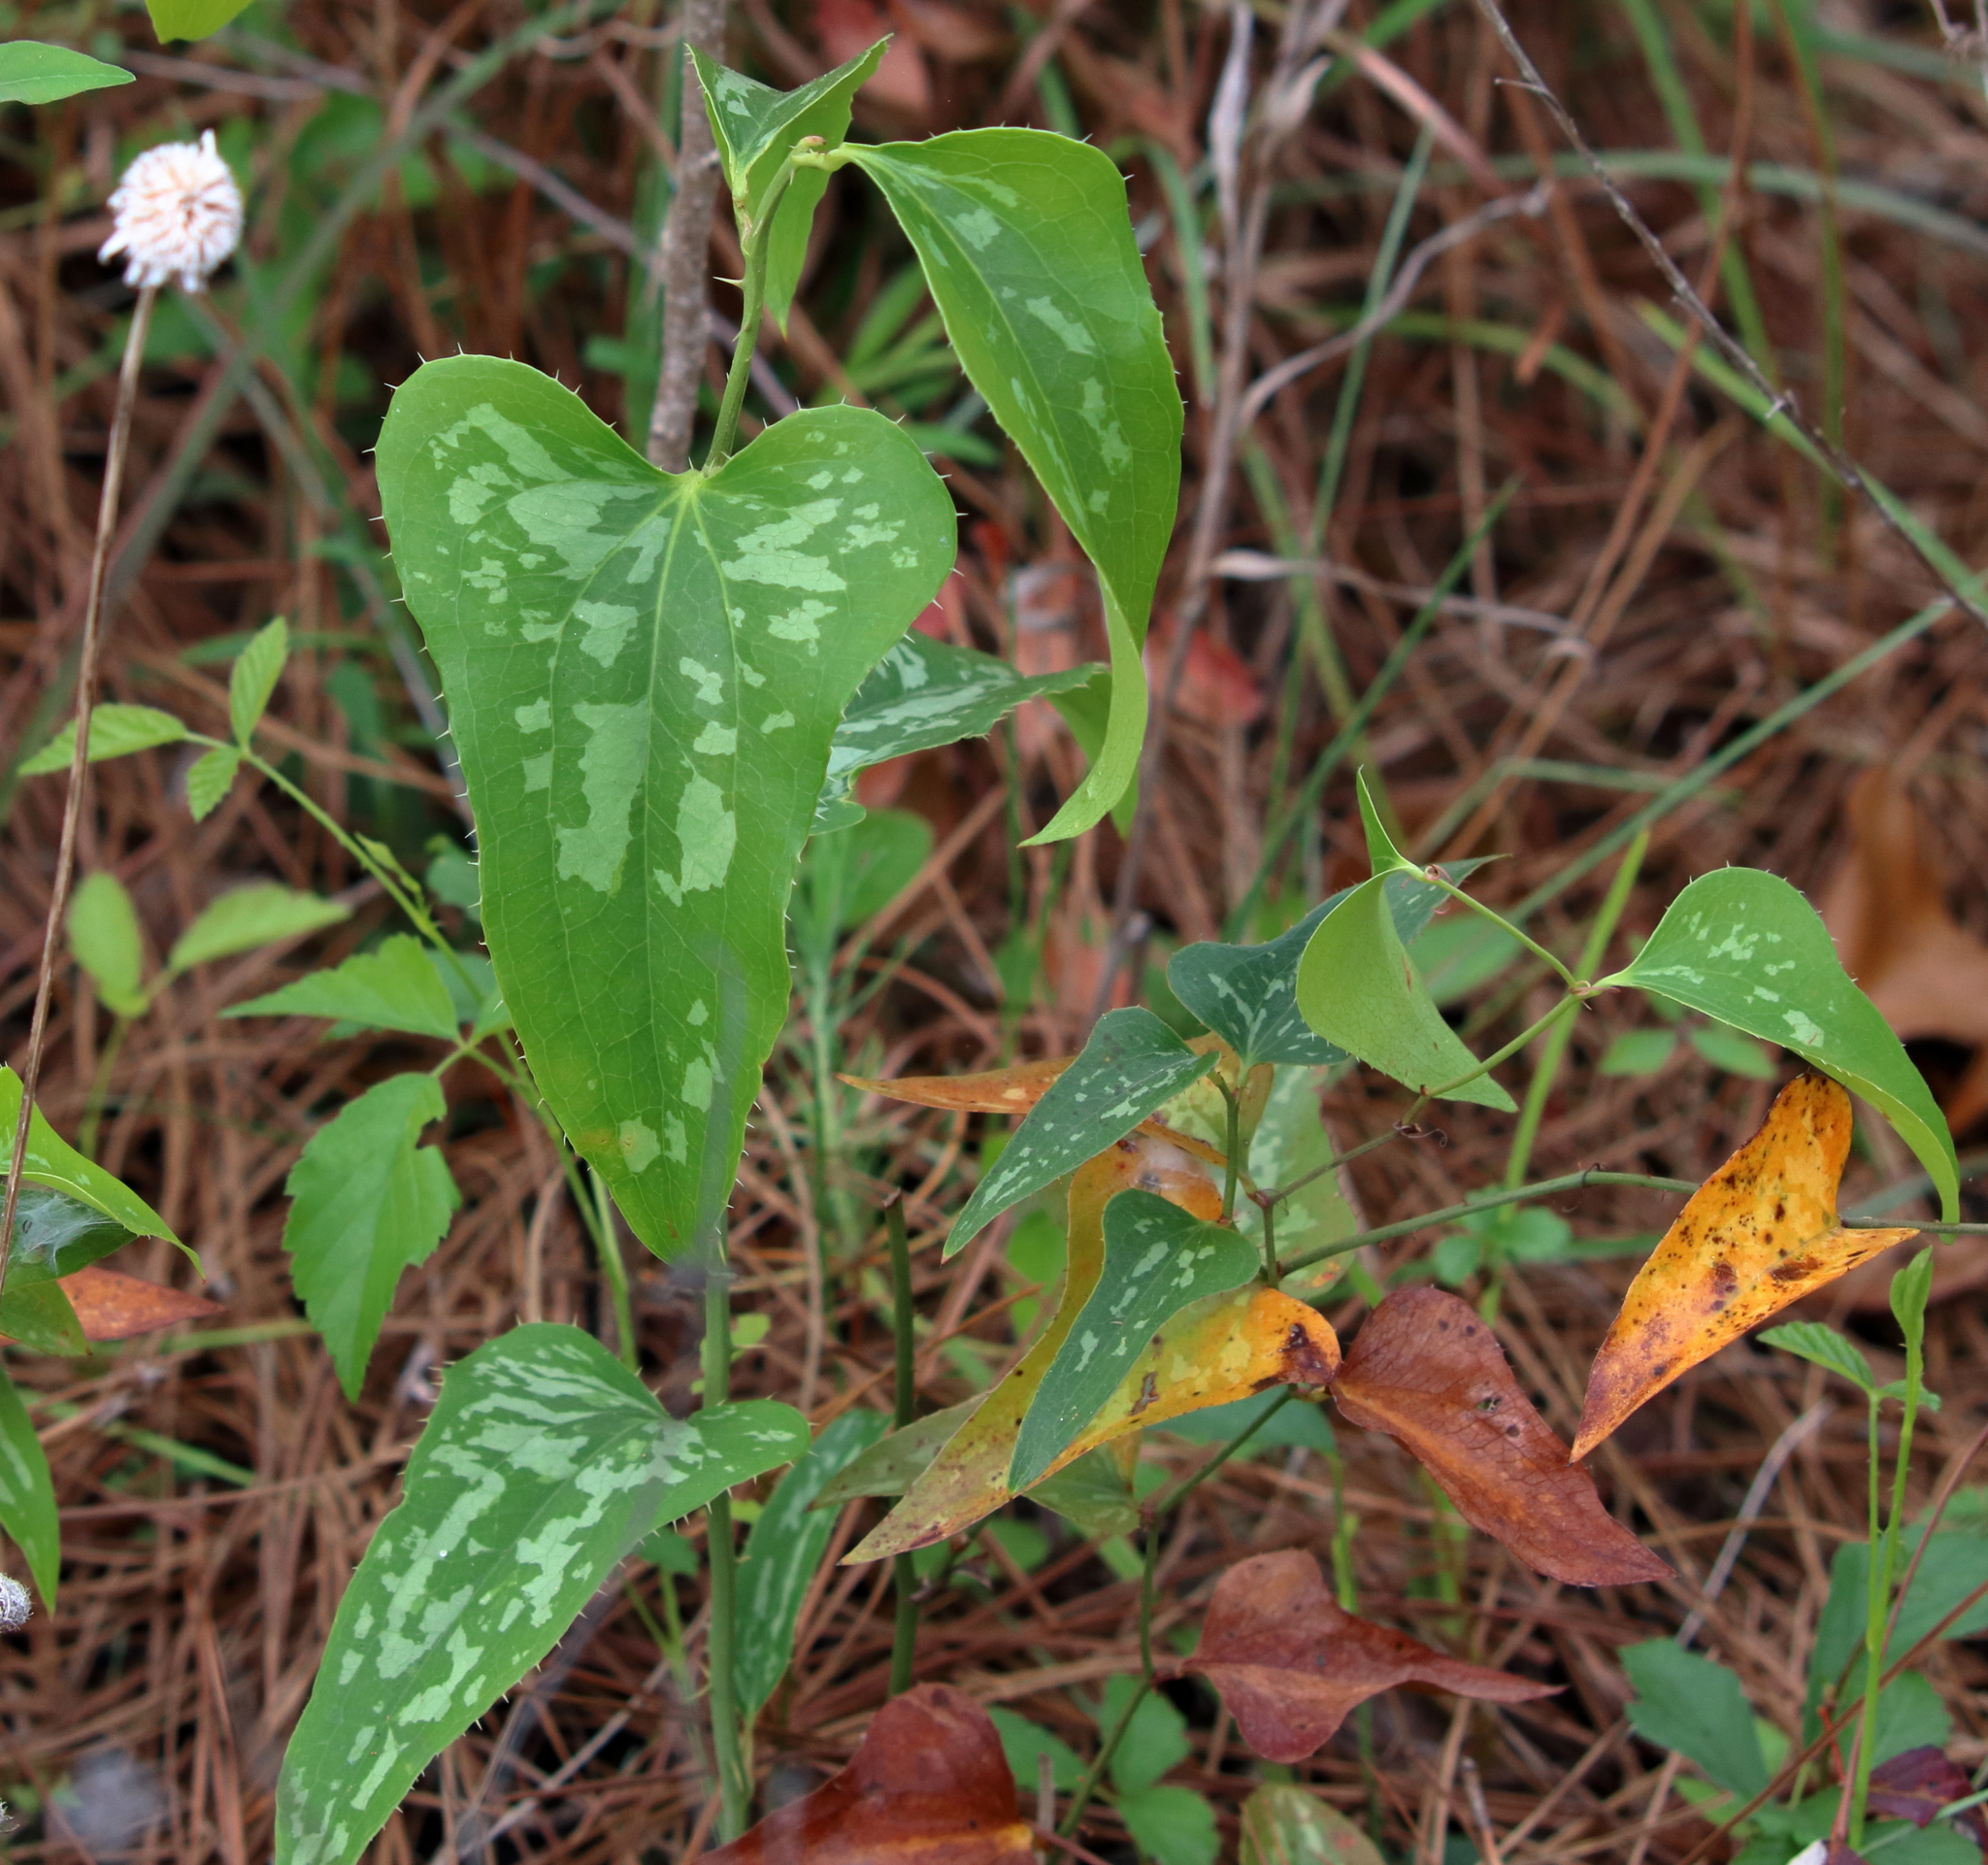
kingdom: Plantae
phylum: Tracheophyta
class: Liliopsida
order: Liliales
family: Smilacaceae
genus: Smilax
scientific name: Smilax bona-nox
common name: Catbrier
